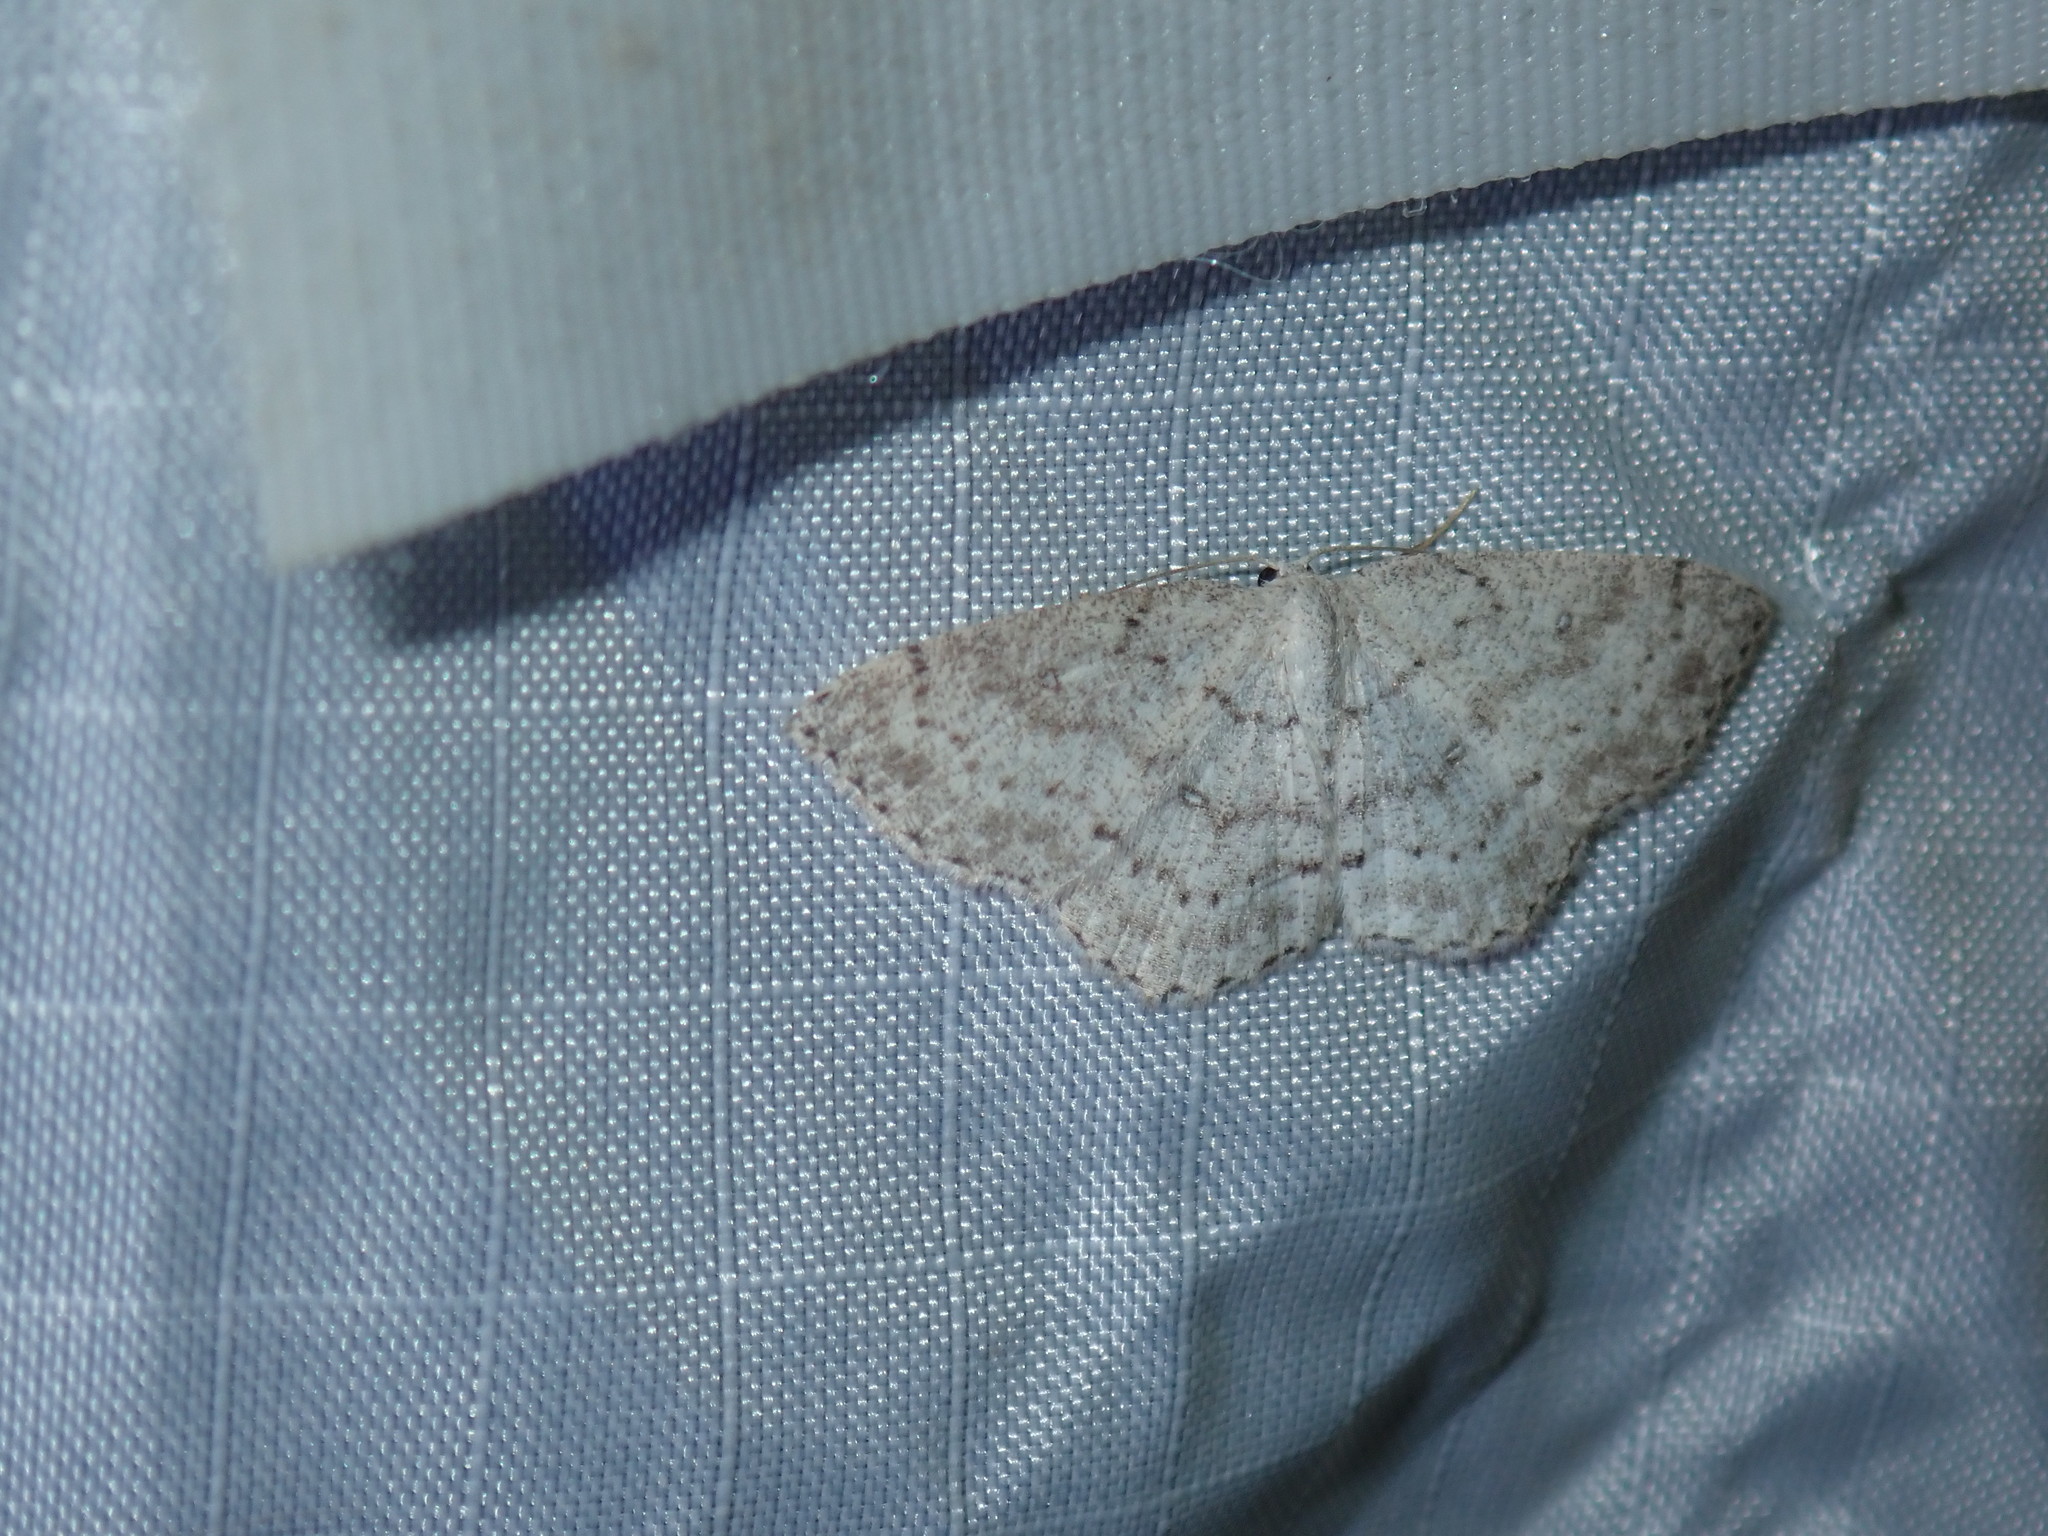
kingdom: Animalia
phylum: Arthropoda
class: Insecta
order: Lepidoptera
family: Geometridae
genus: Cyclophora
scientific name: Cyclophora pendulinaria
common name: Sweet fern geometer
